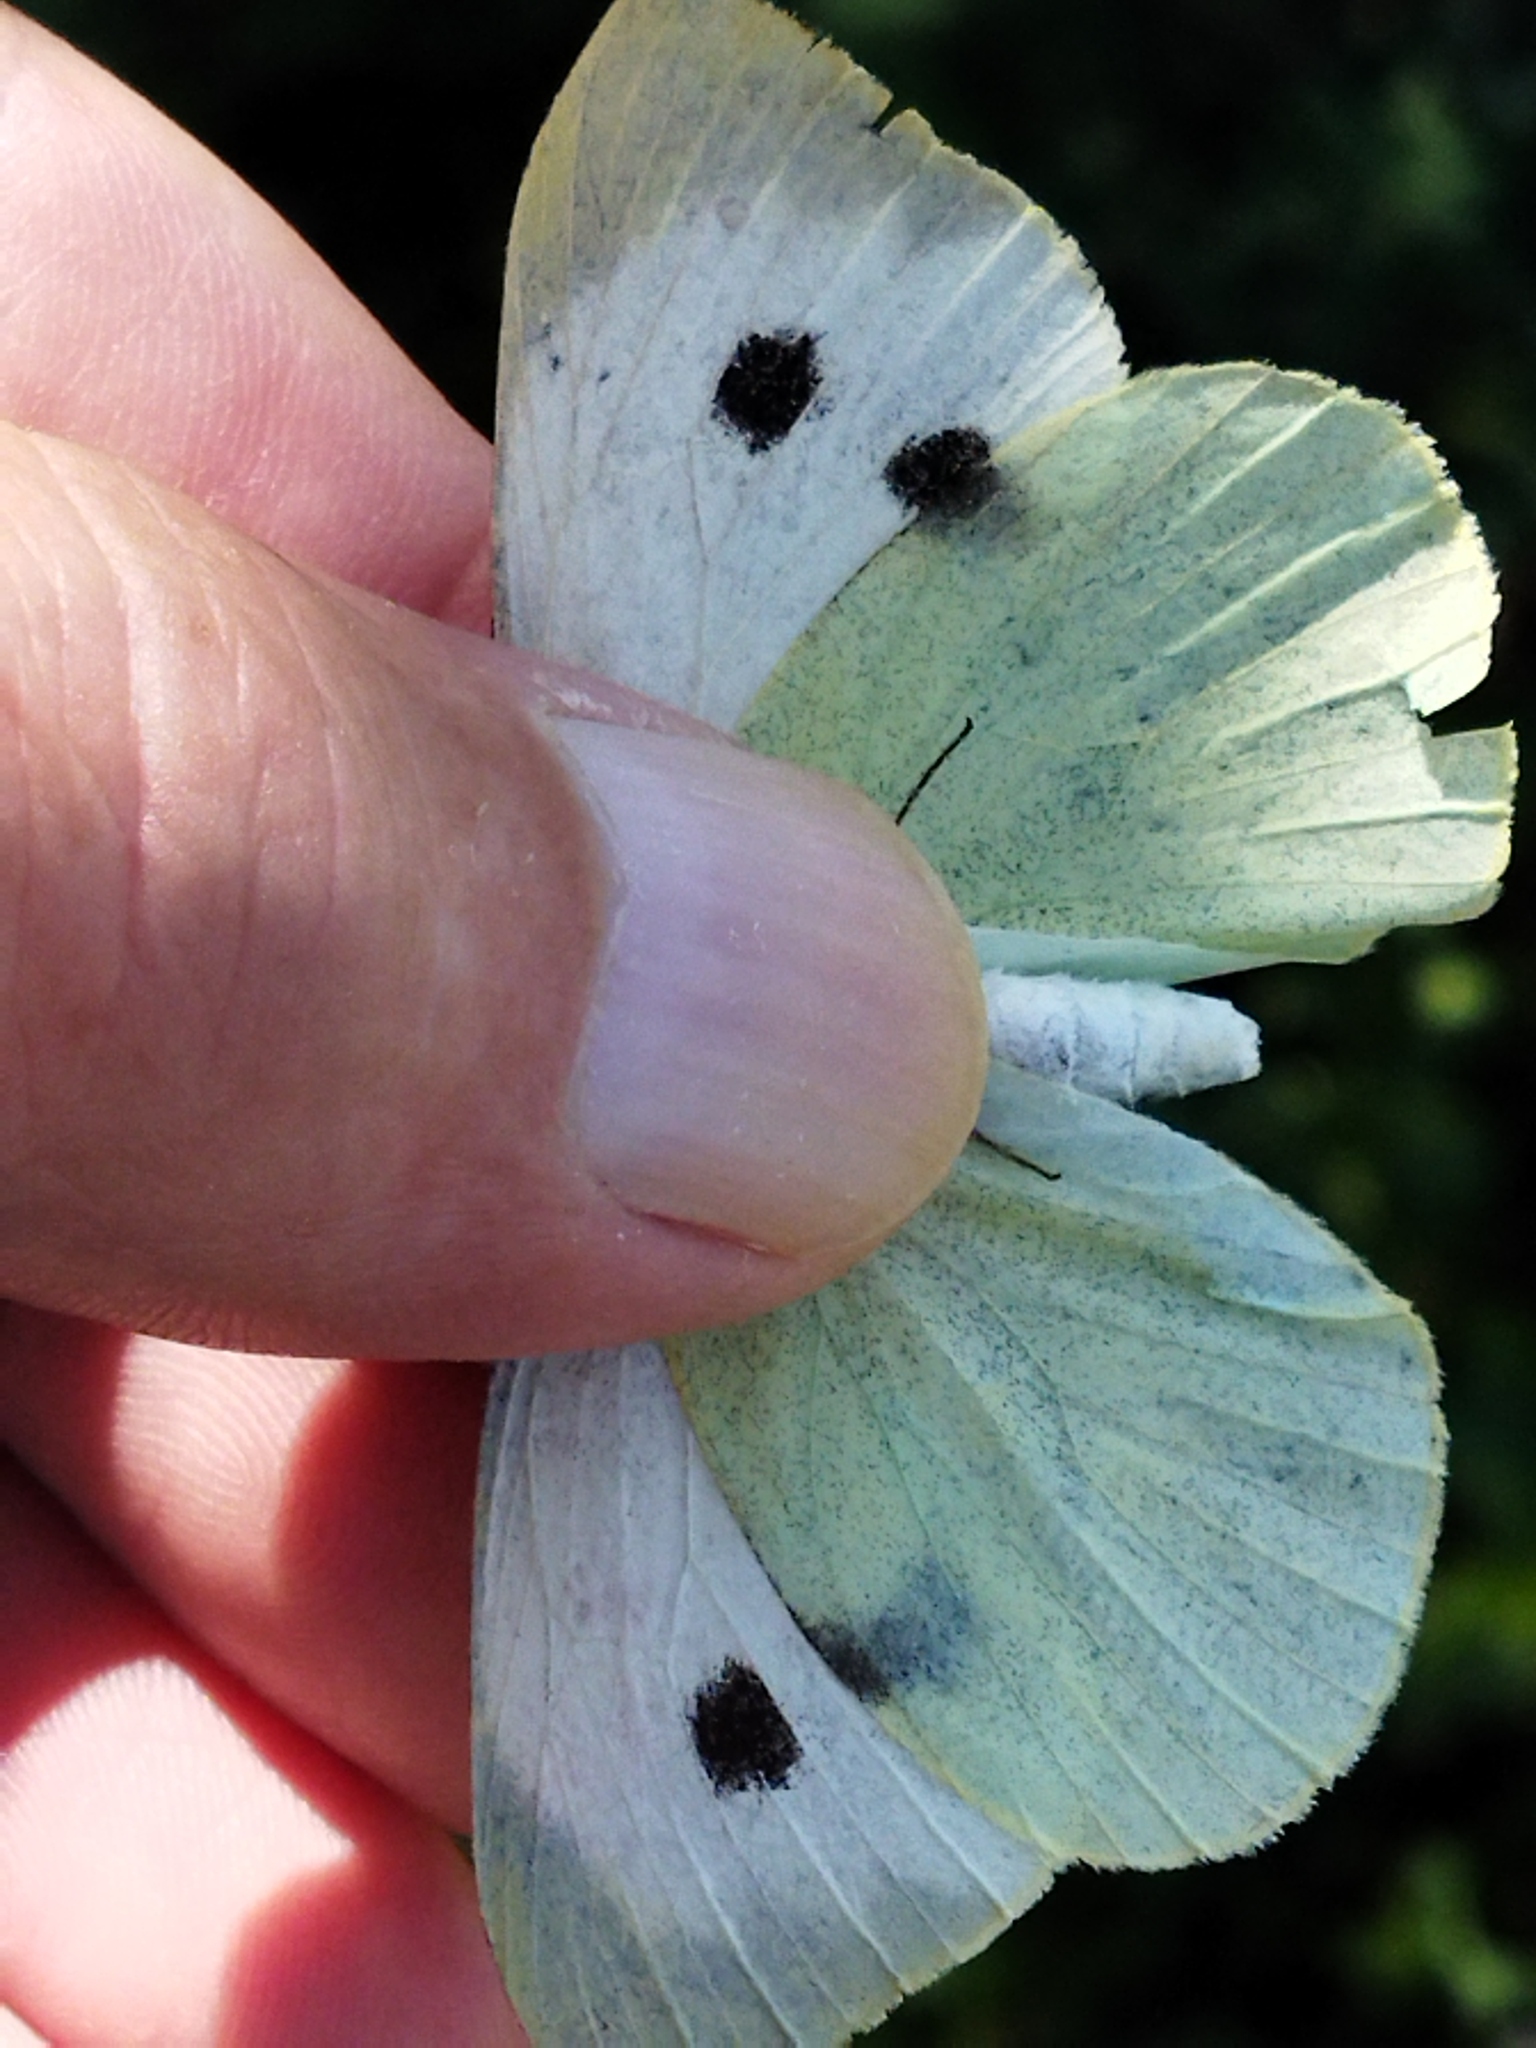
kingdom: Animalia
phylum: Arthropoda
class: Insecta
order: Lepidoptera
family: Pieridae
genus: Pieris
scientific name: Pieris brassicae
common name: Large white
